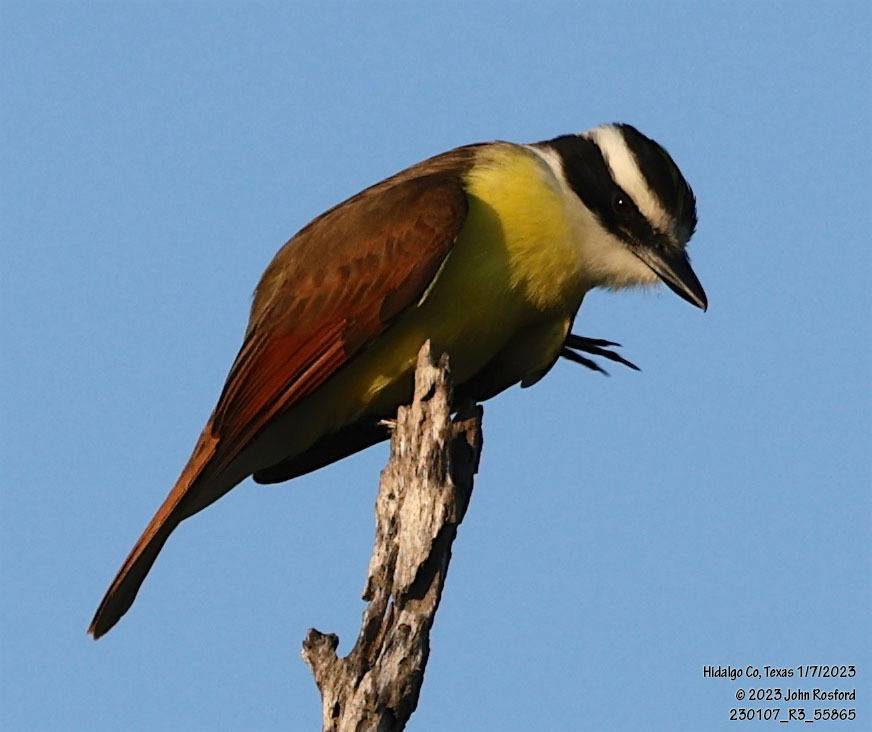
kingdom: Animalia
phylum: Chordata
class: Aves
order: Passeriformes
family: Tyrannidae
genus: Pitangus
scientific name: Pitangus sulphuratus
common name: Great kiskadee
